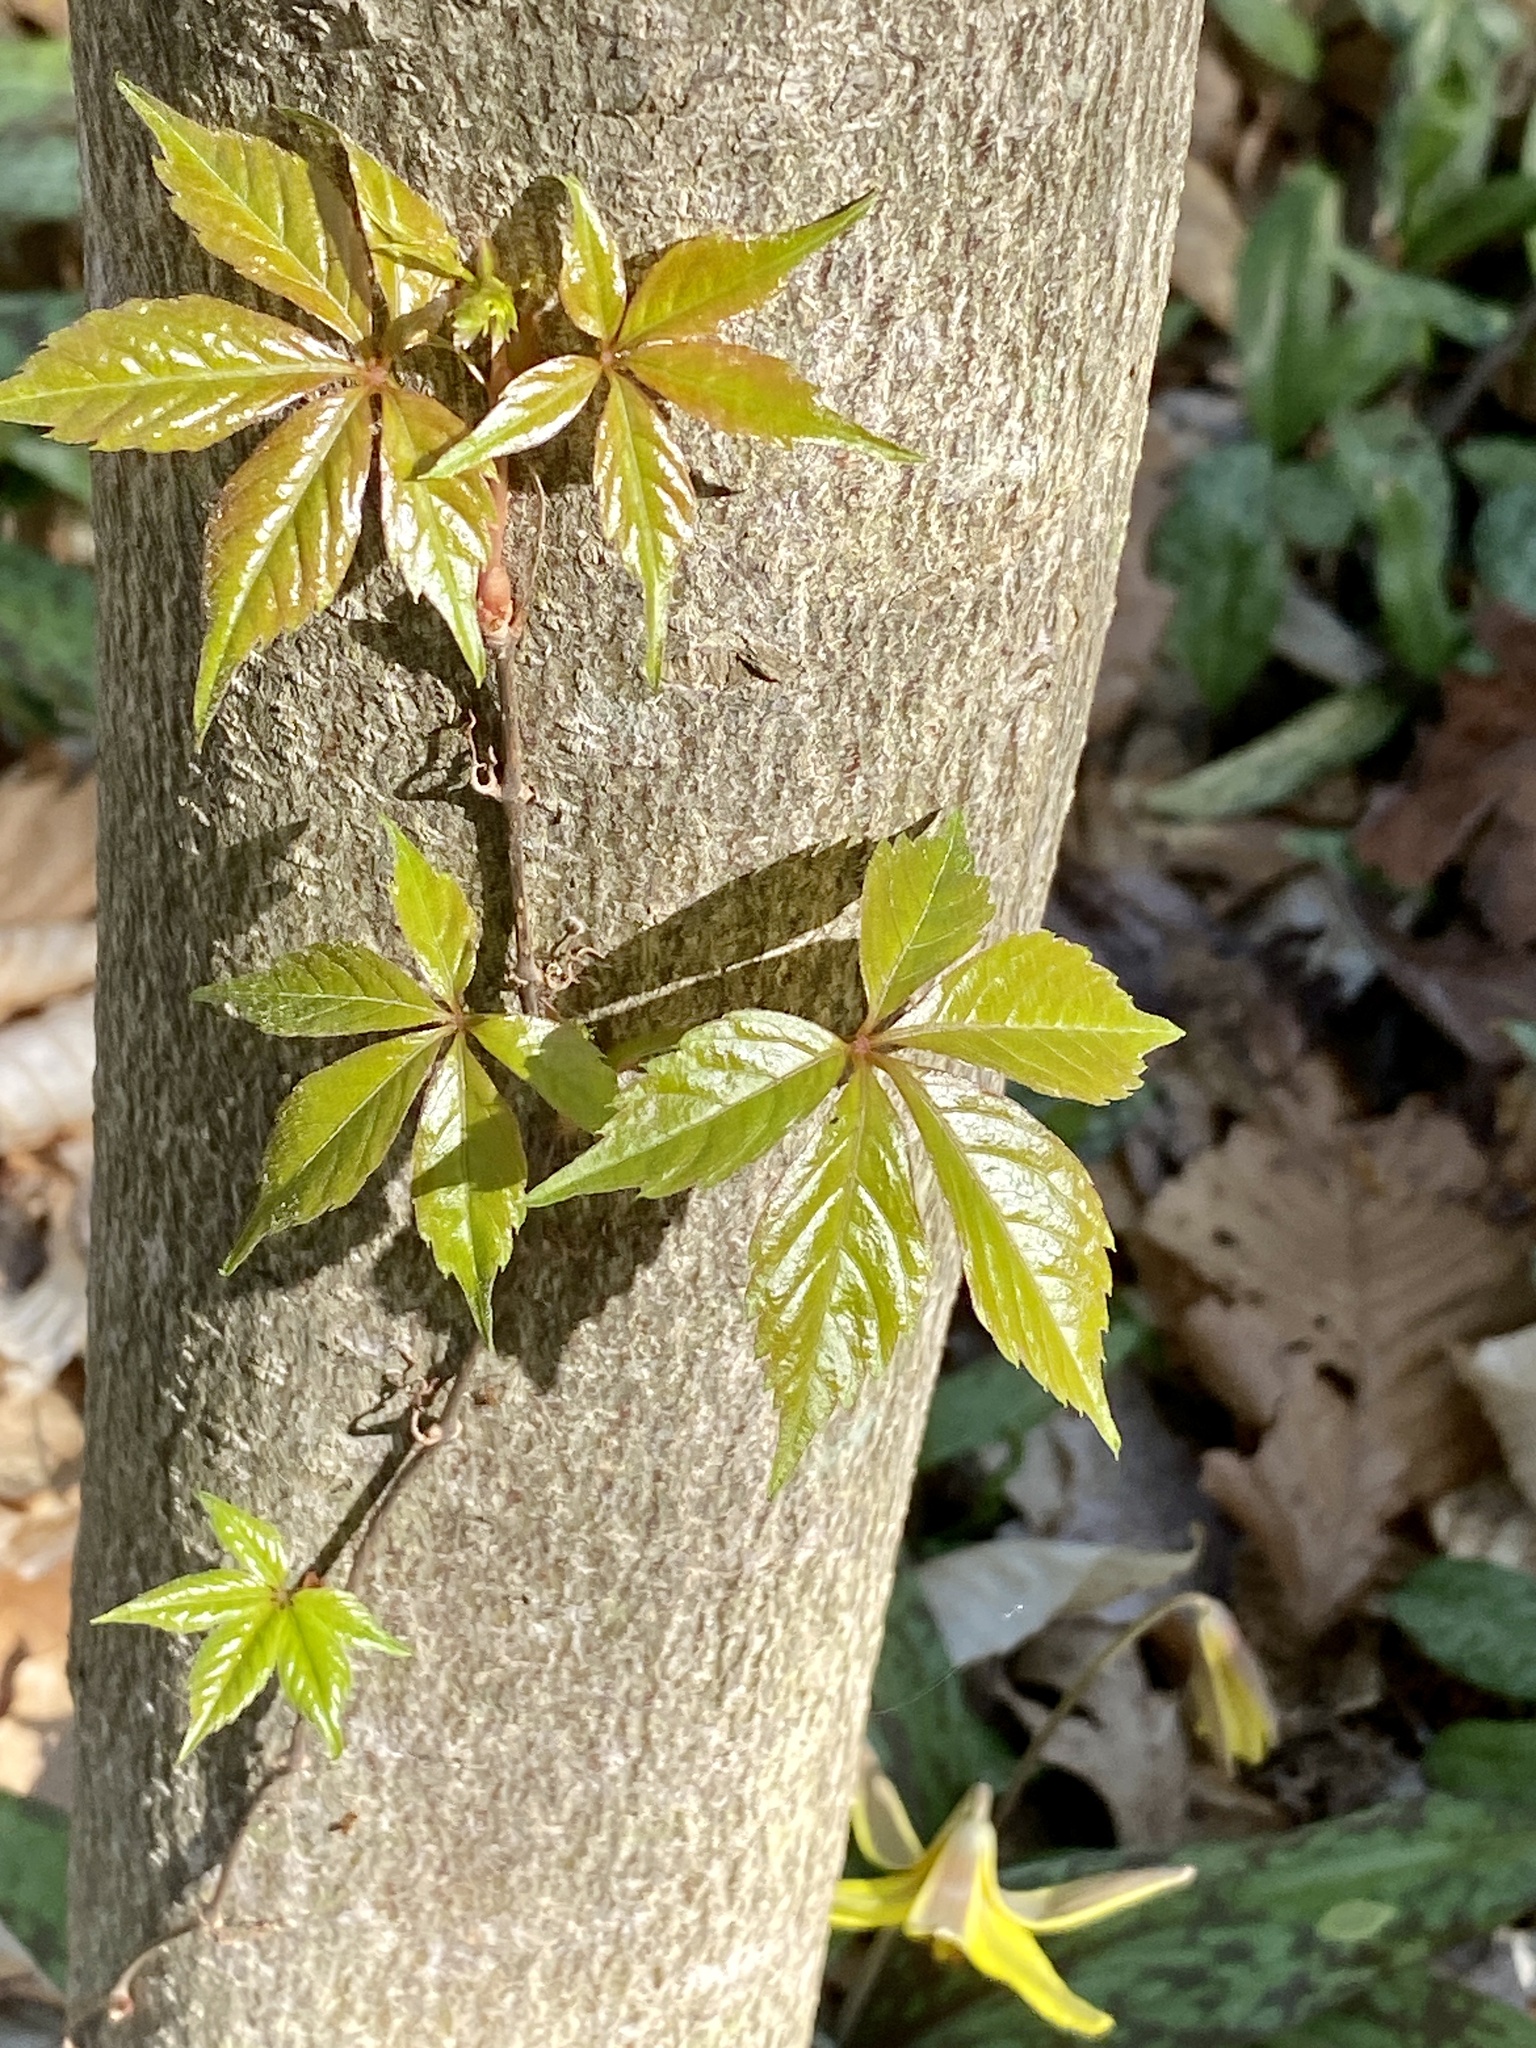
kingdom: Plantae
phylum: Tracheophyta
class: Magnoliopsida
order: Vitales
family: Vitaceae
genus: Parthenocissus
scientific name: Parthenocissus quinquefolia
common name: Virginia-creeper
